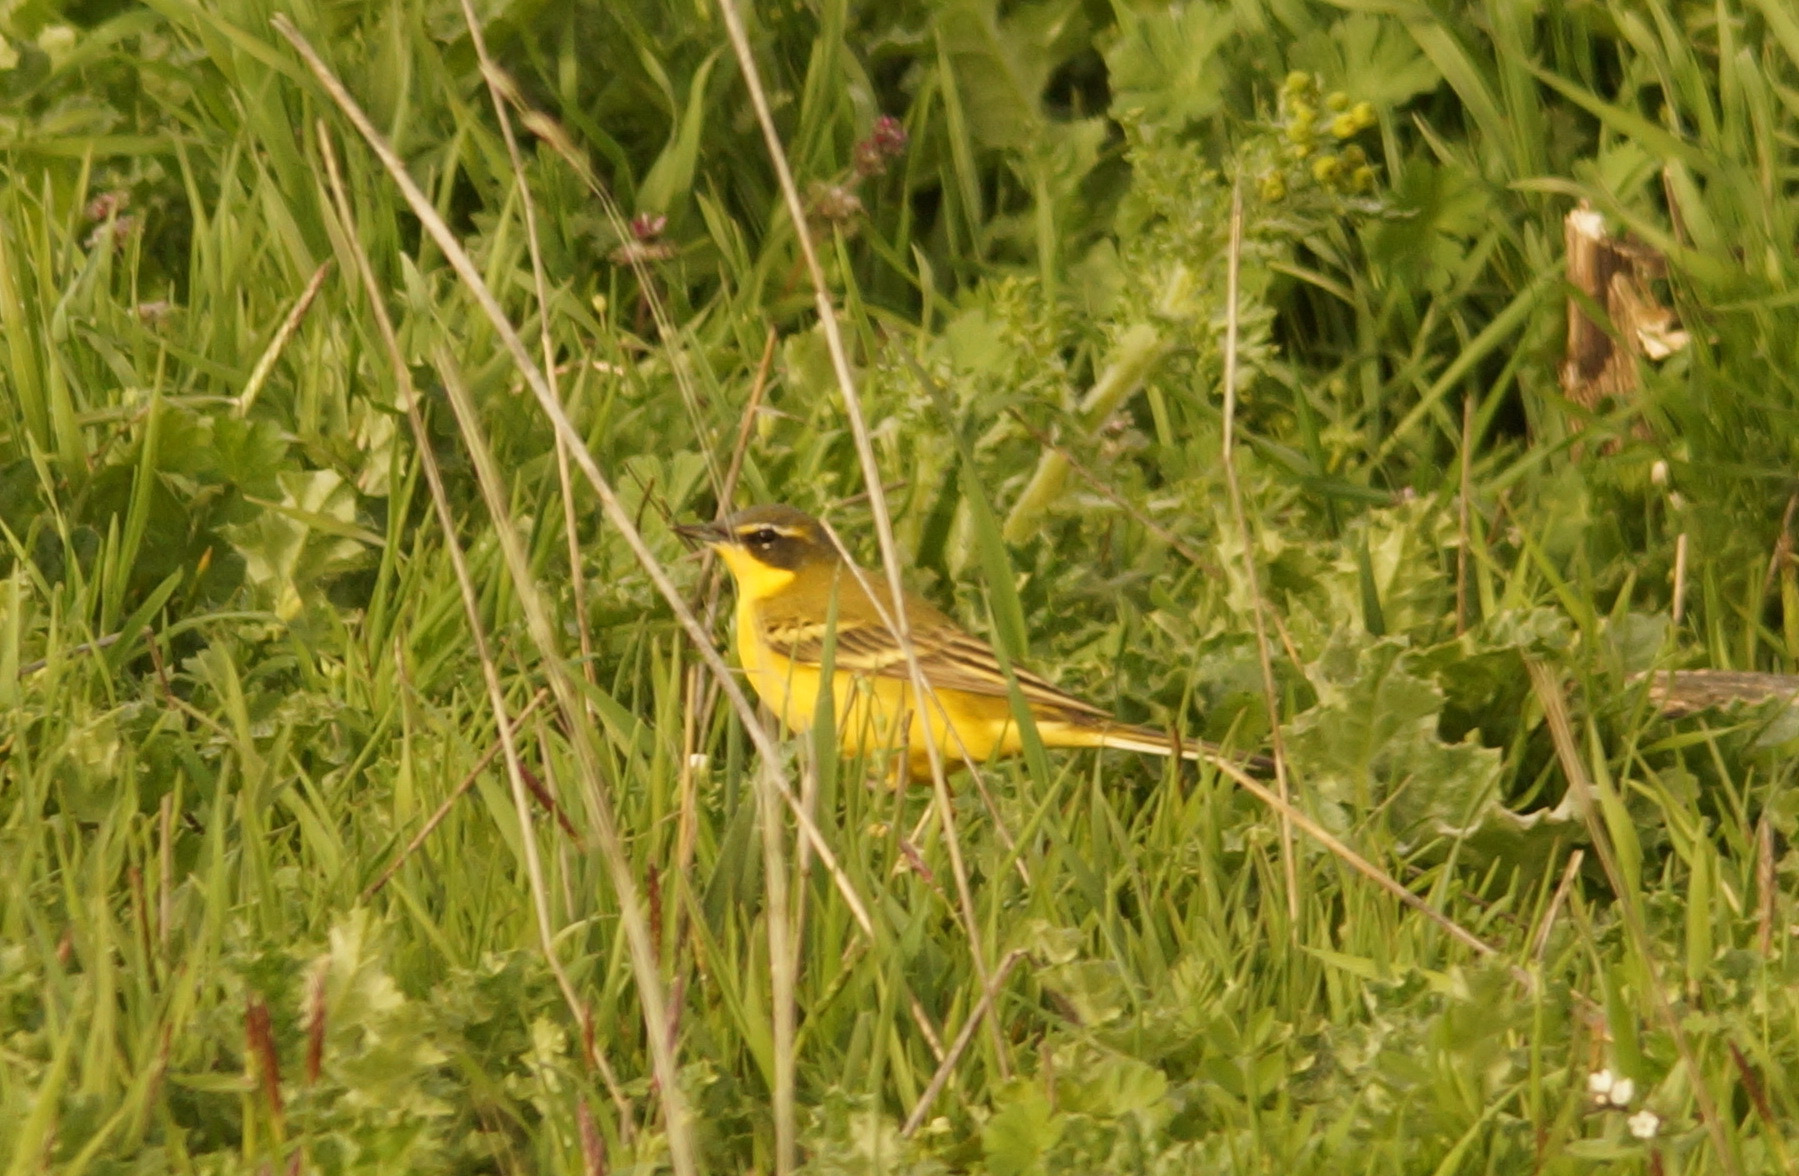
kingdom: Animalia
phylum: Chordata
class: Aves
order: Passeriformes
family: Motacillidae
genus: Motacilla
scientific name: Motacilla flava
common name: Western yellow wagtail
